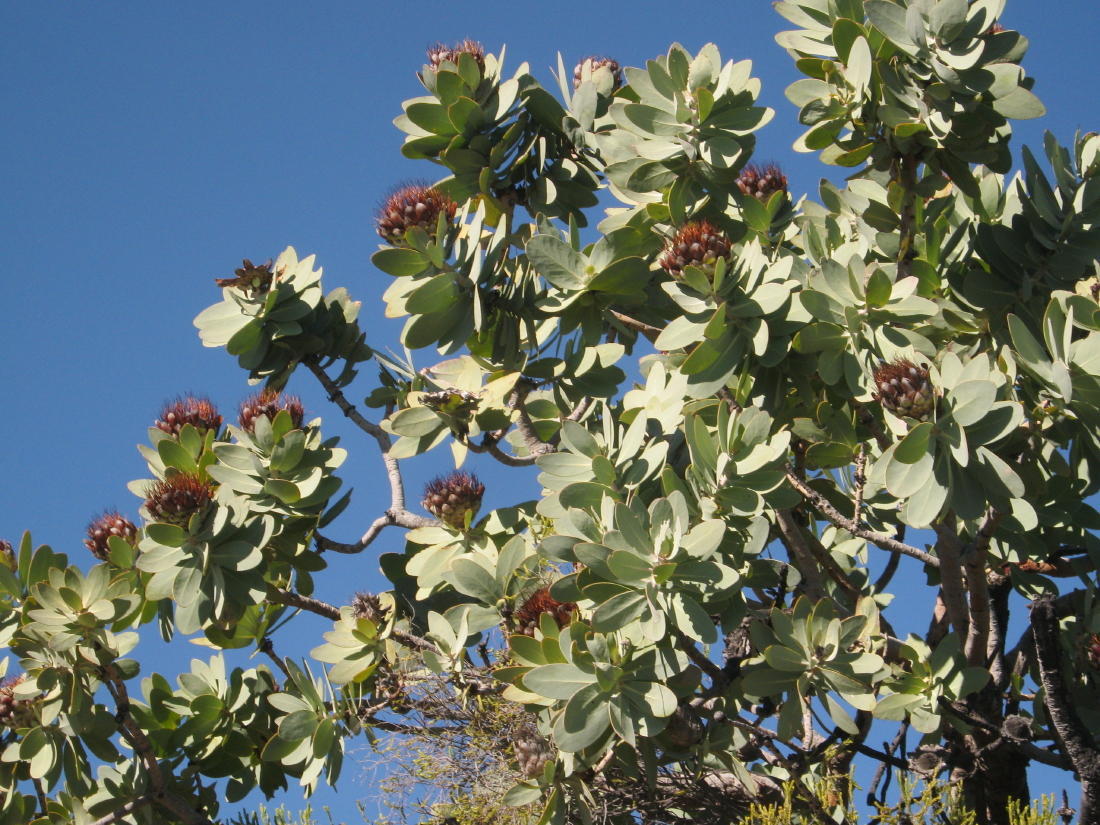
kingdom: Plantae
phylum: Tracheophyta
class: Magnoliopsida
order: Proteales
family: Proteaceae
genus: Protea
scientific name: Protea nitida
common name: Tree protea
